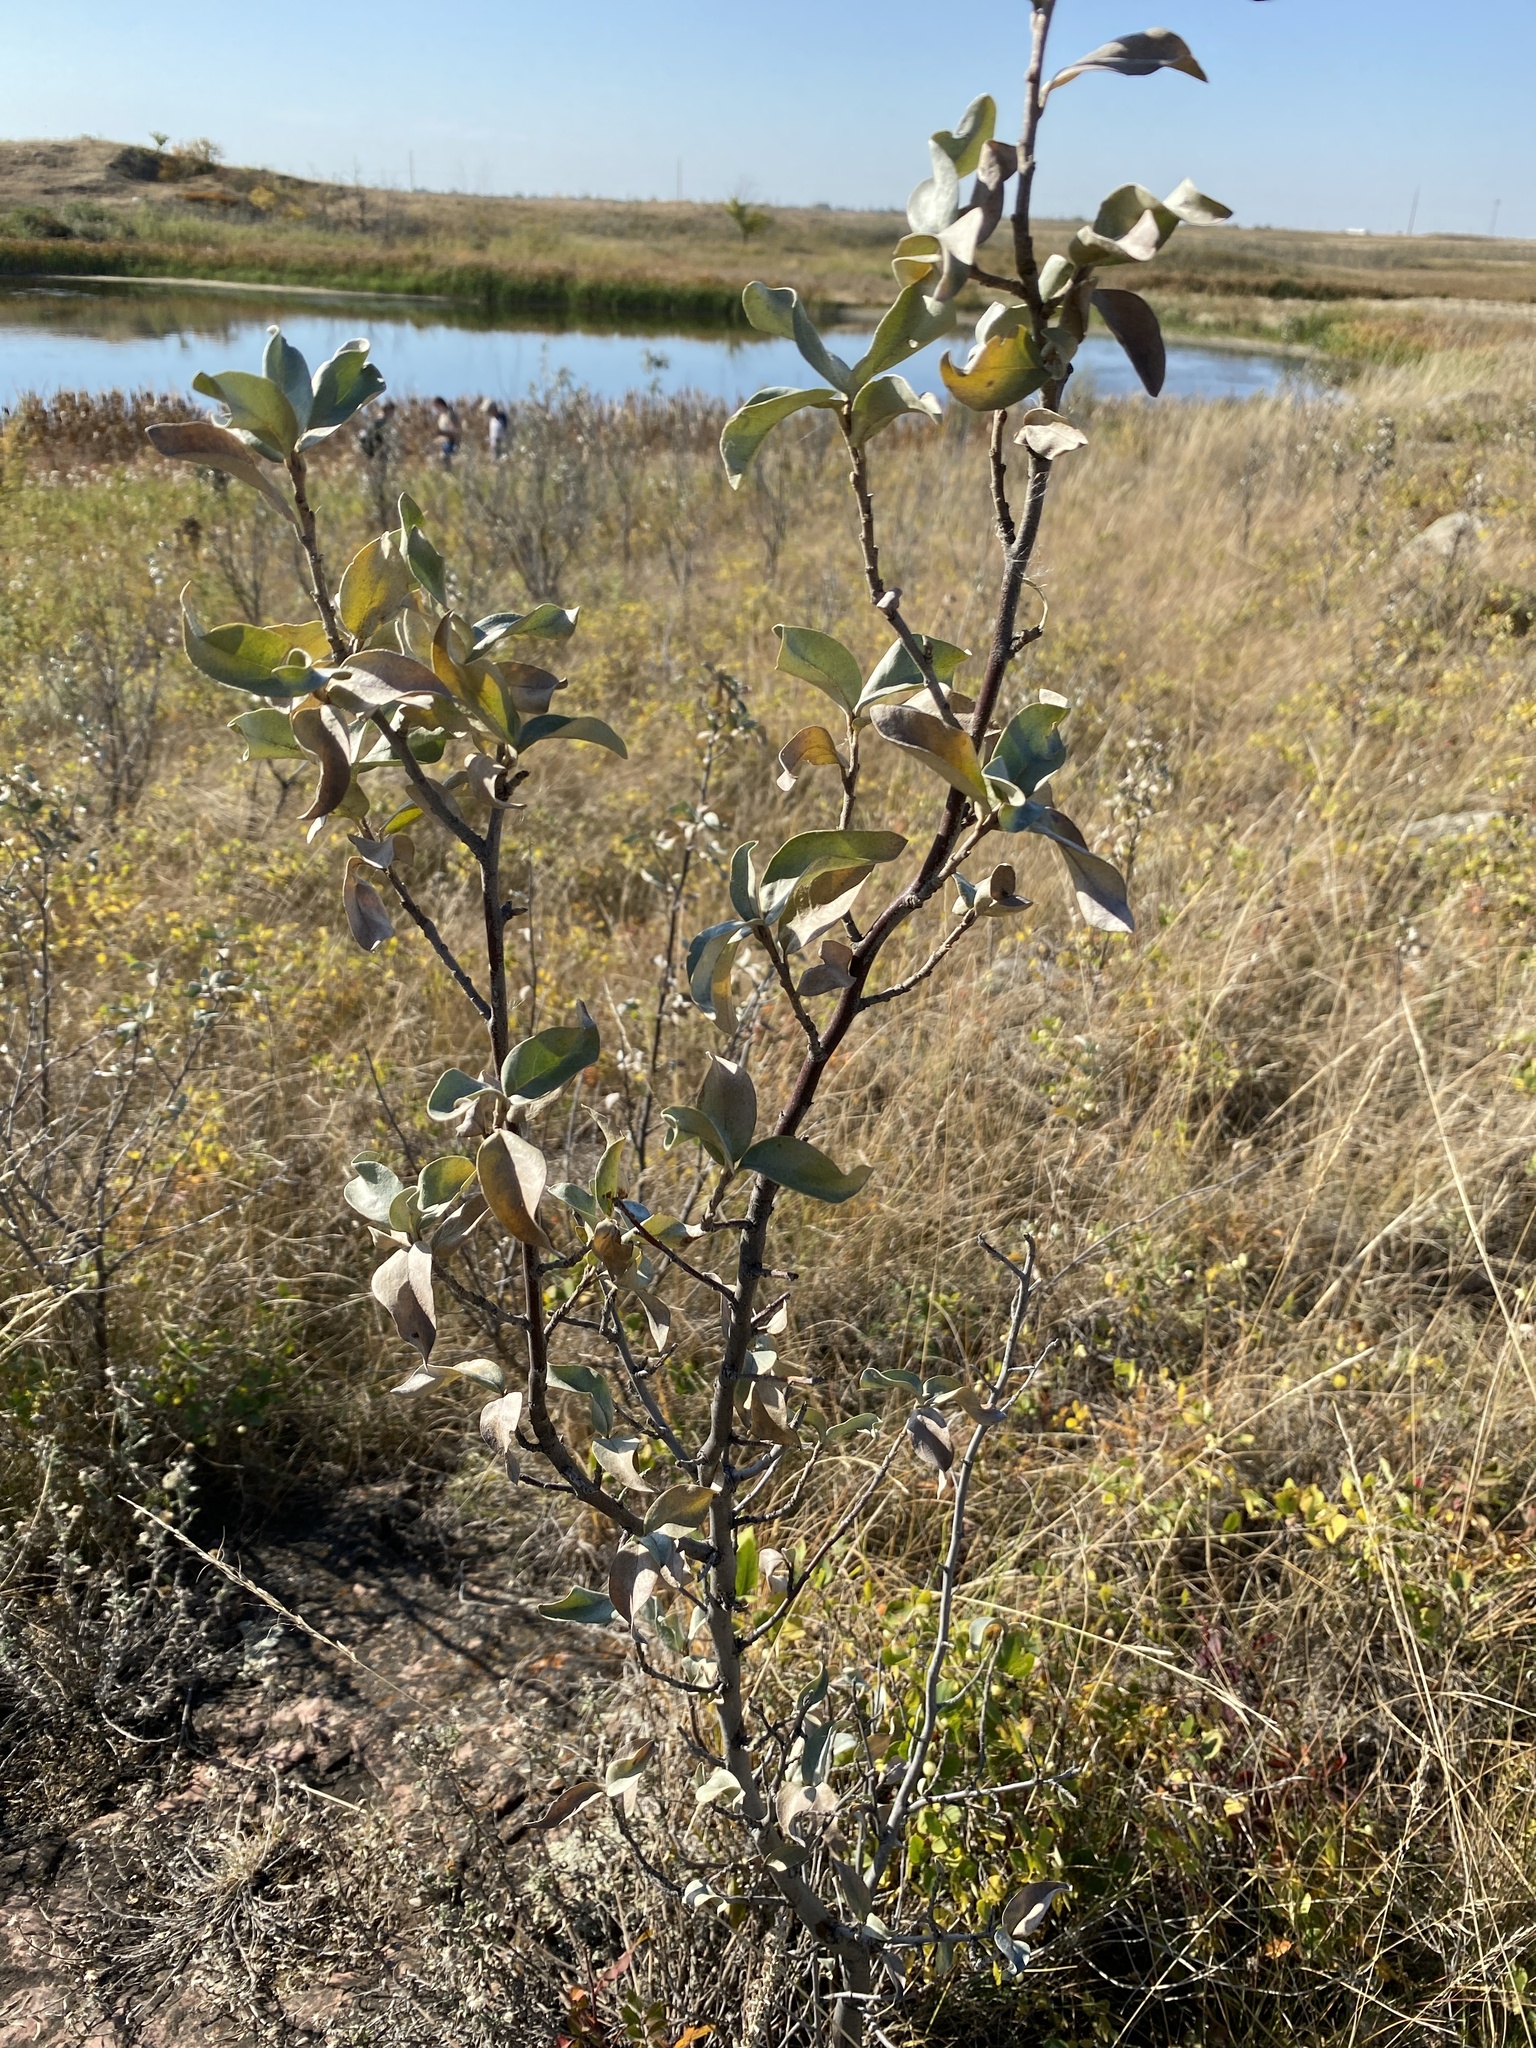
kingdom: Plantae
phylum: Tracheophyta
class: Magnoliopsida
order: Rosales
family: Elaeagnaceae
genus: Elaeagnus
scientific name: Elaeagnus commutata
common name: Silverberry
